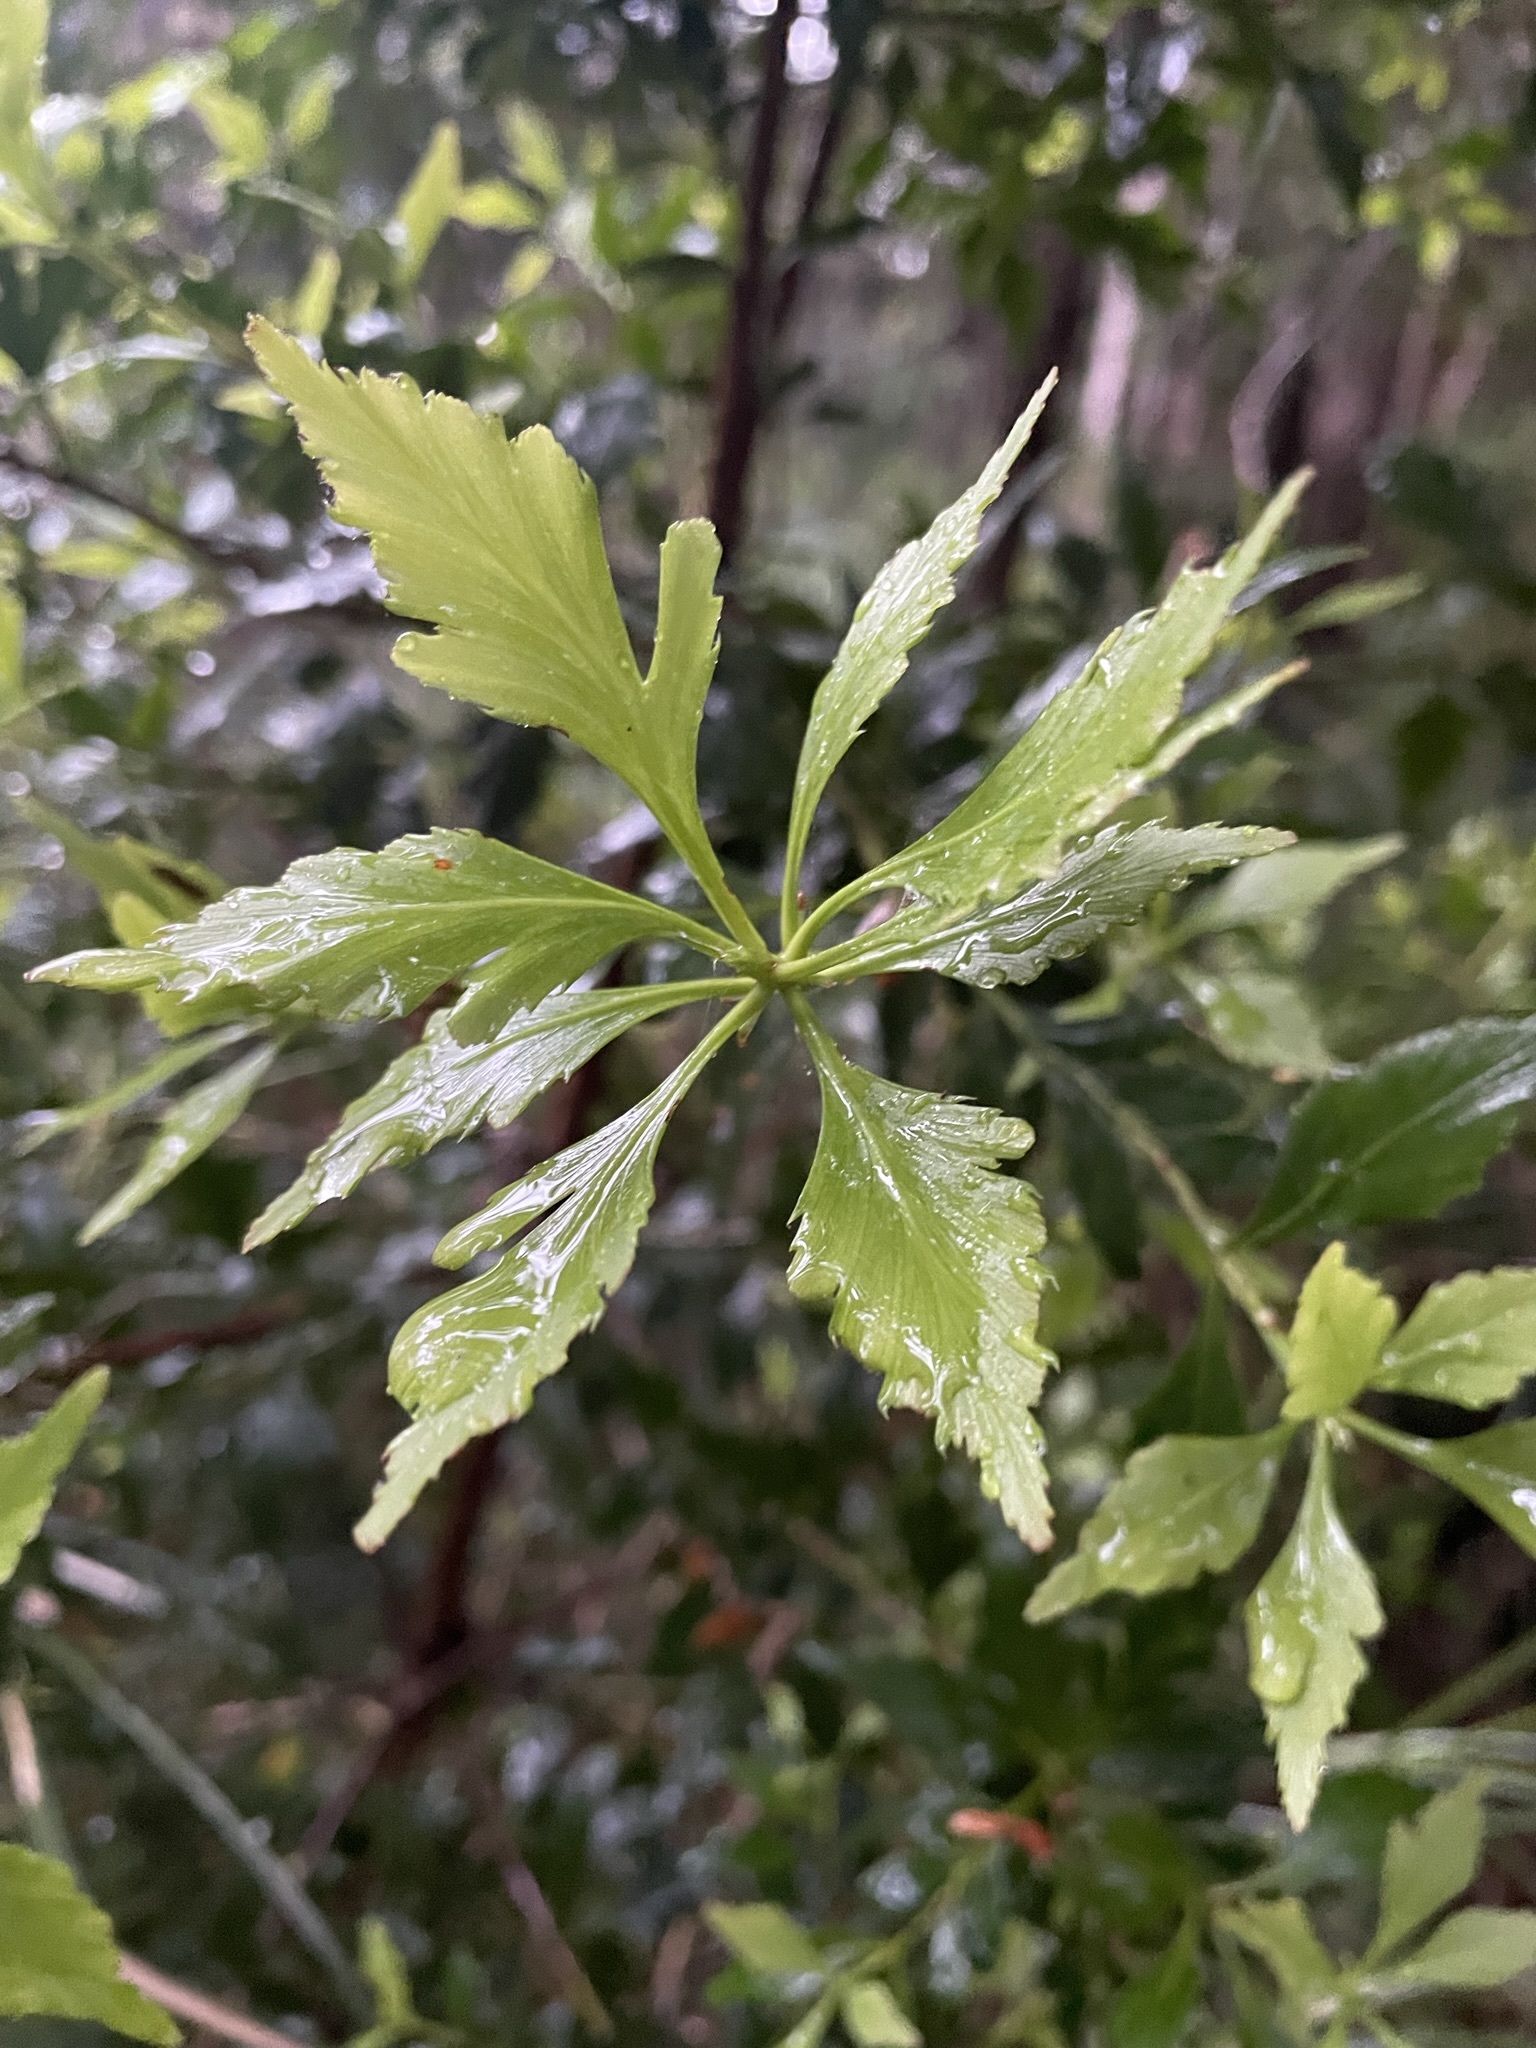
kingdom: Plantae
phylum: Tracheophyta
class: Pinopsida
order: Pinales
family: Phyllocladaceae
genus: Phyllocladus
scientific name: Phyllocladus aspleniifolius
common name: Celery-top pine
